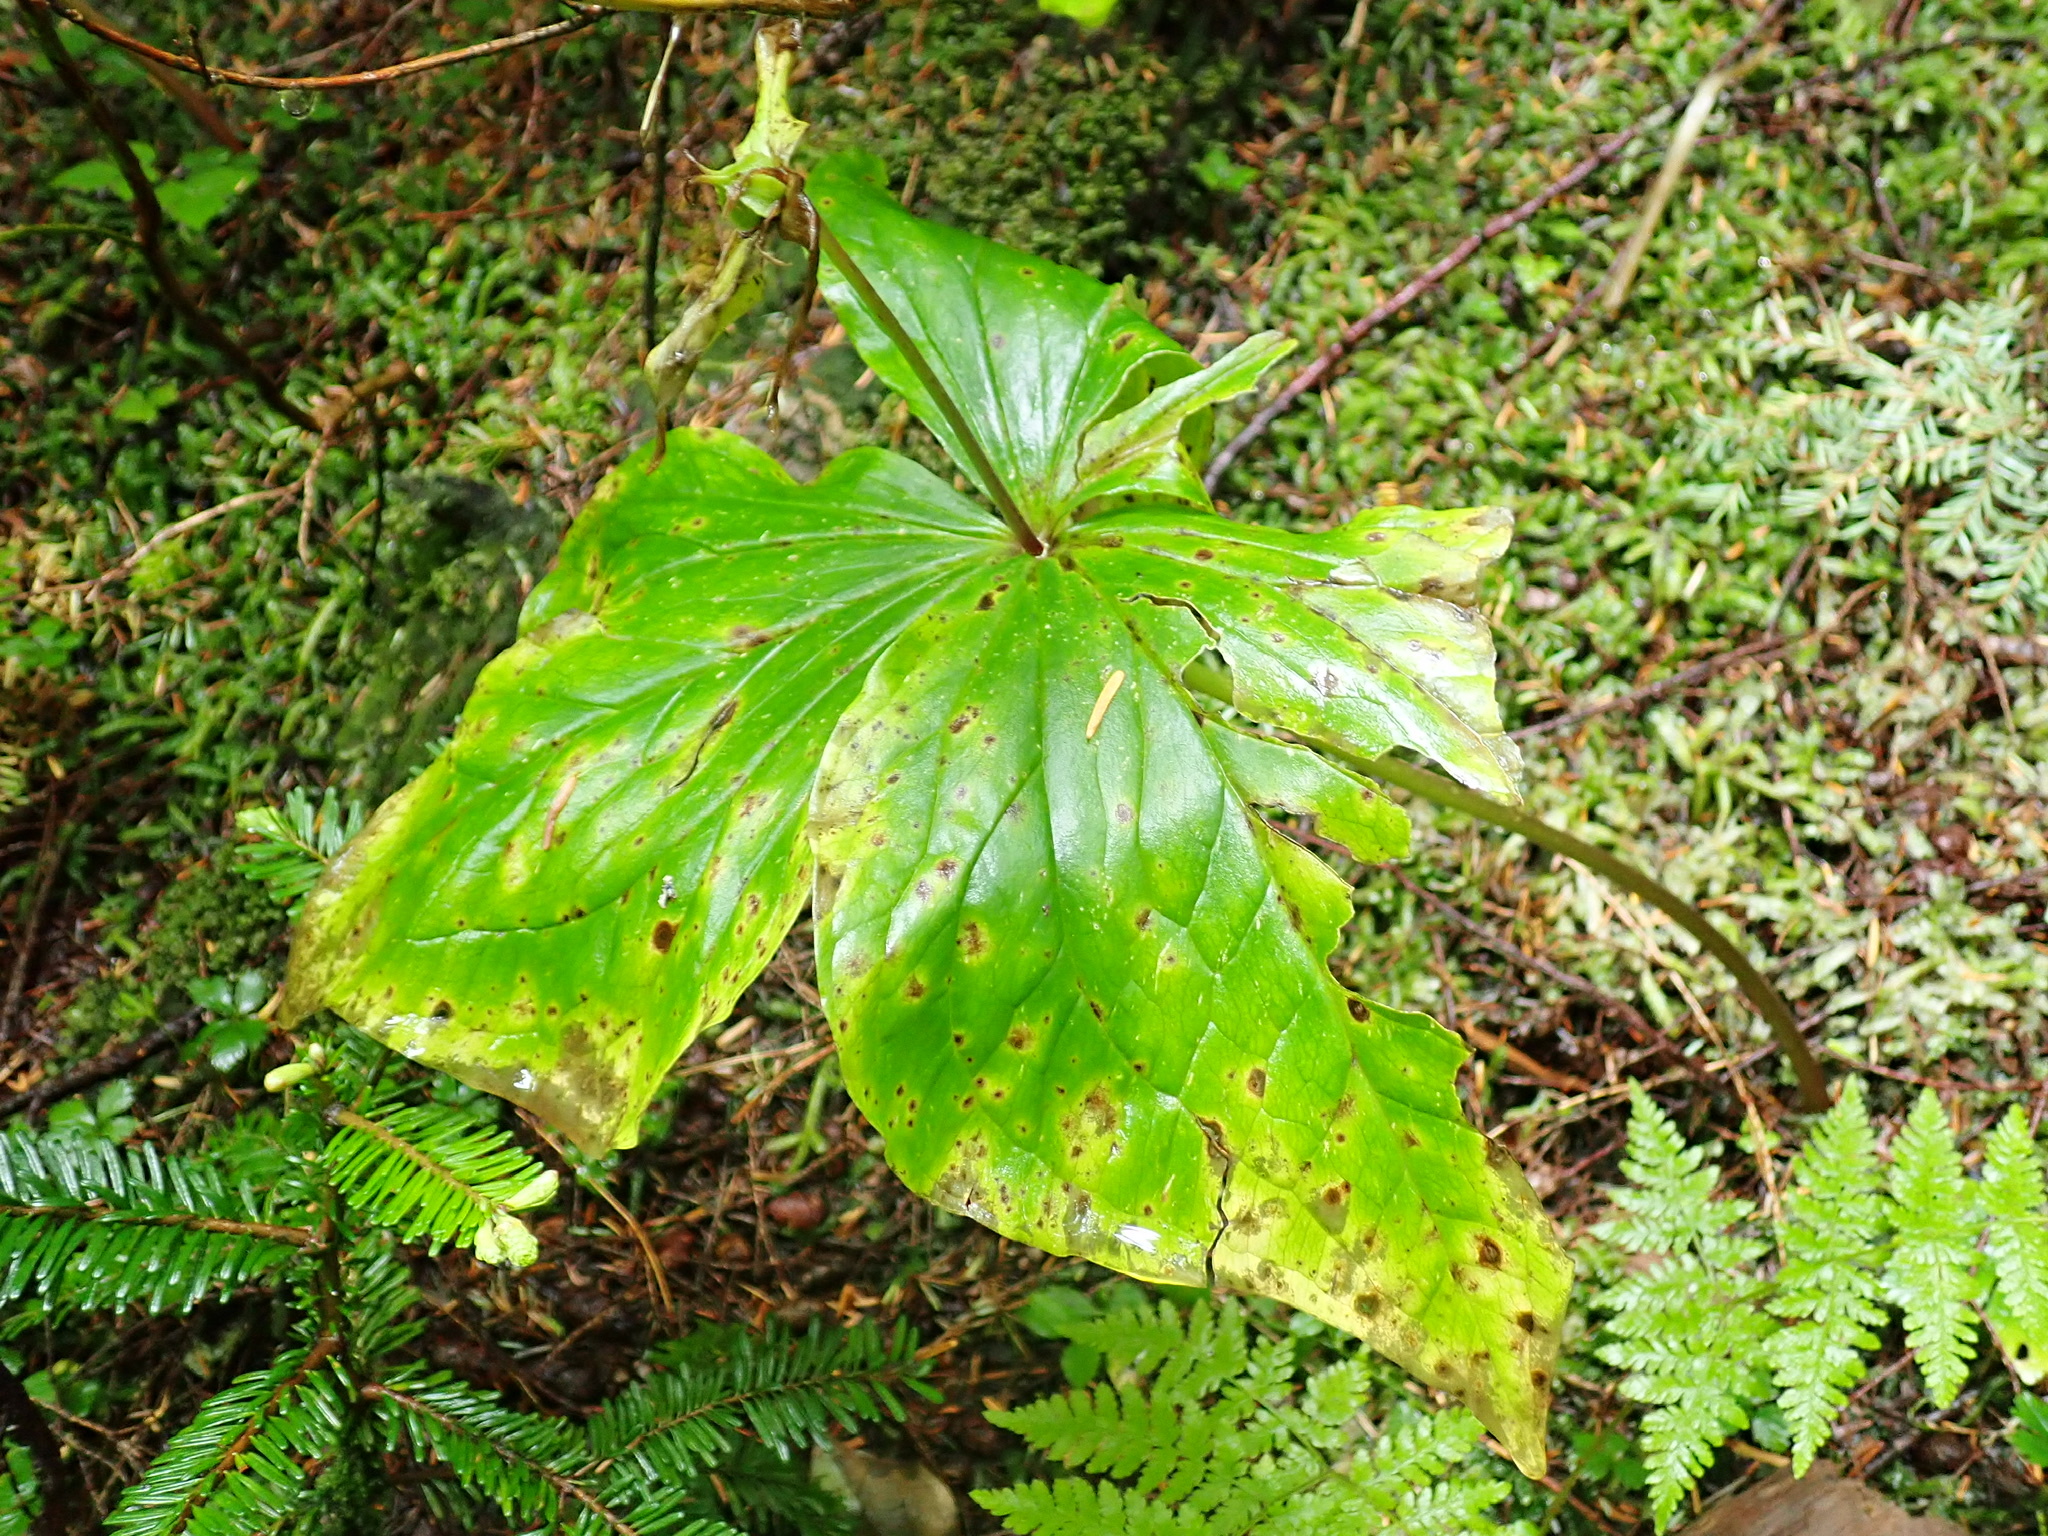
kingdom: Plantae
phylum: Tracheophyta
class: Liliopsida
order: Liliales
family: Melanthiaceae
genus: Trillium
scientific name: Trillium ovatum
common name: Pacific trillium
